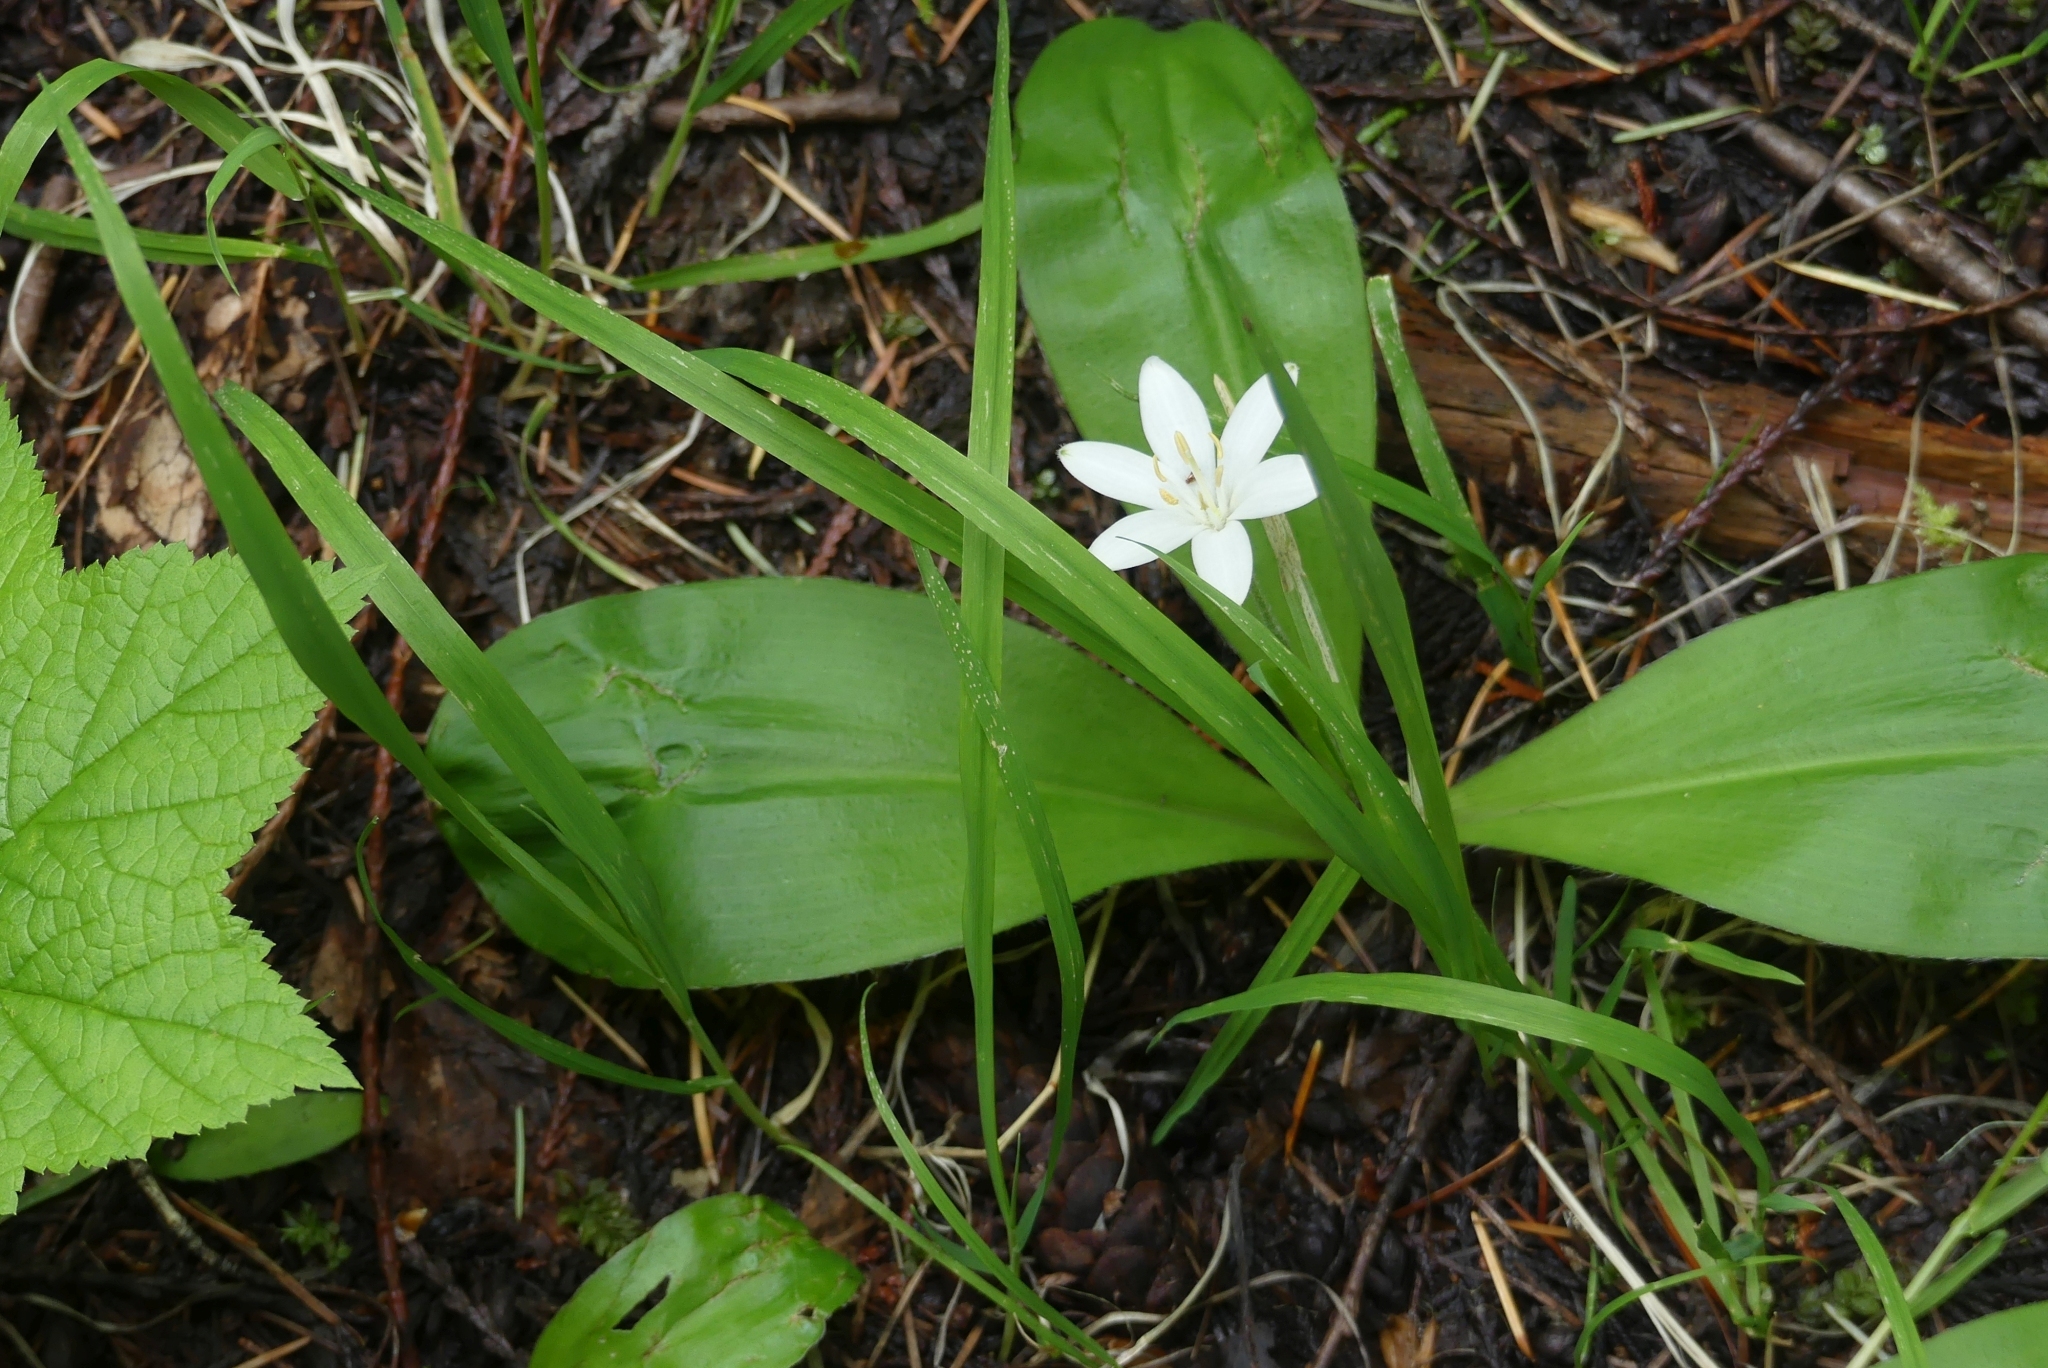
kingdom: Plantae
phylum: Tracheophyta
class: Liliopsida
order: Liliales
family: Liliaceae
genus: Clintonia
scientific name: Clintonia uniflora
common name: Queen's cup
